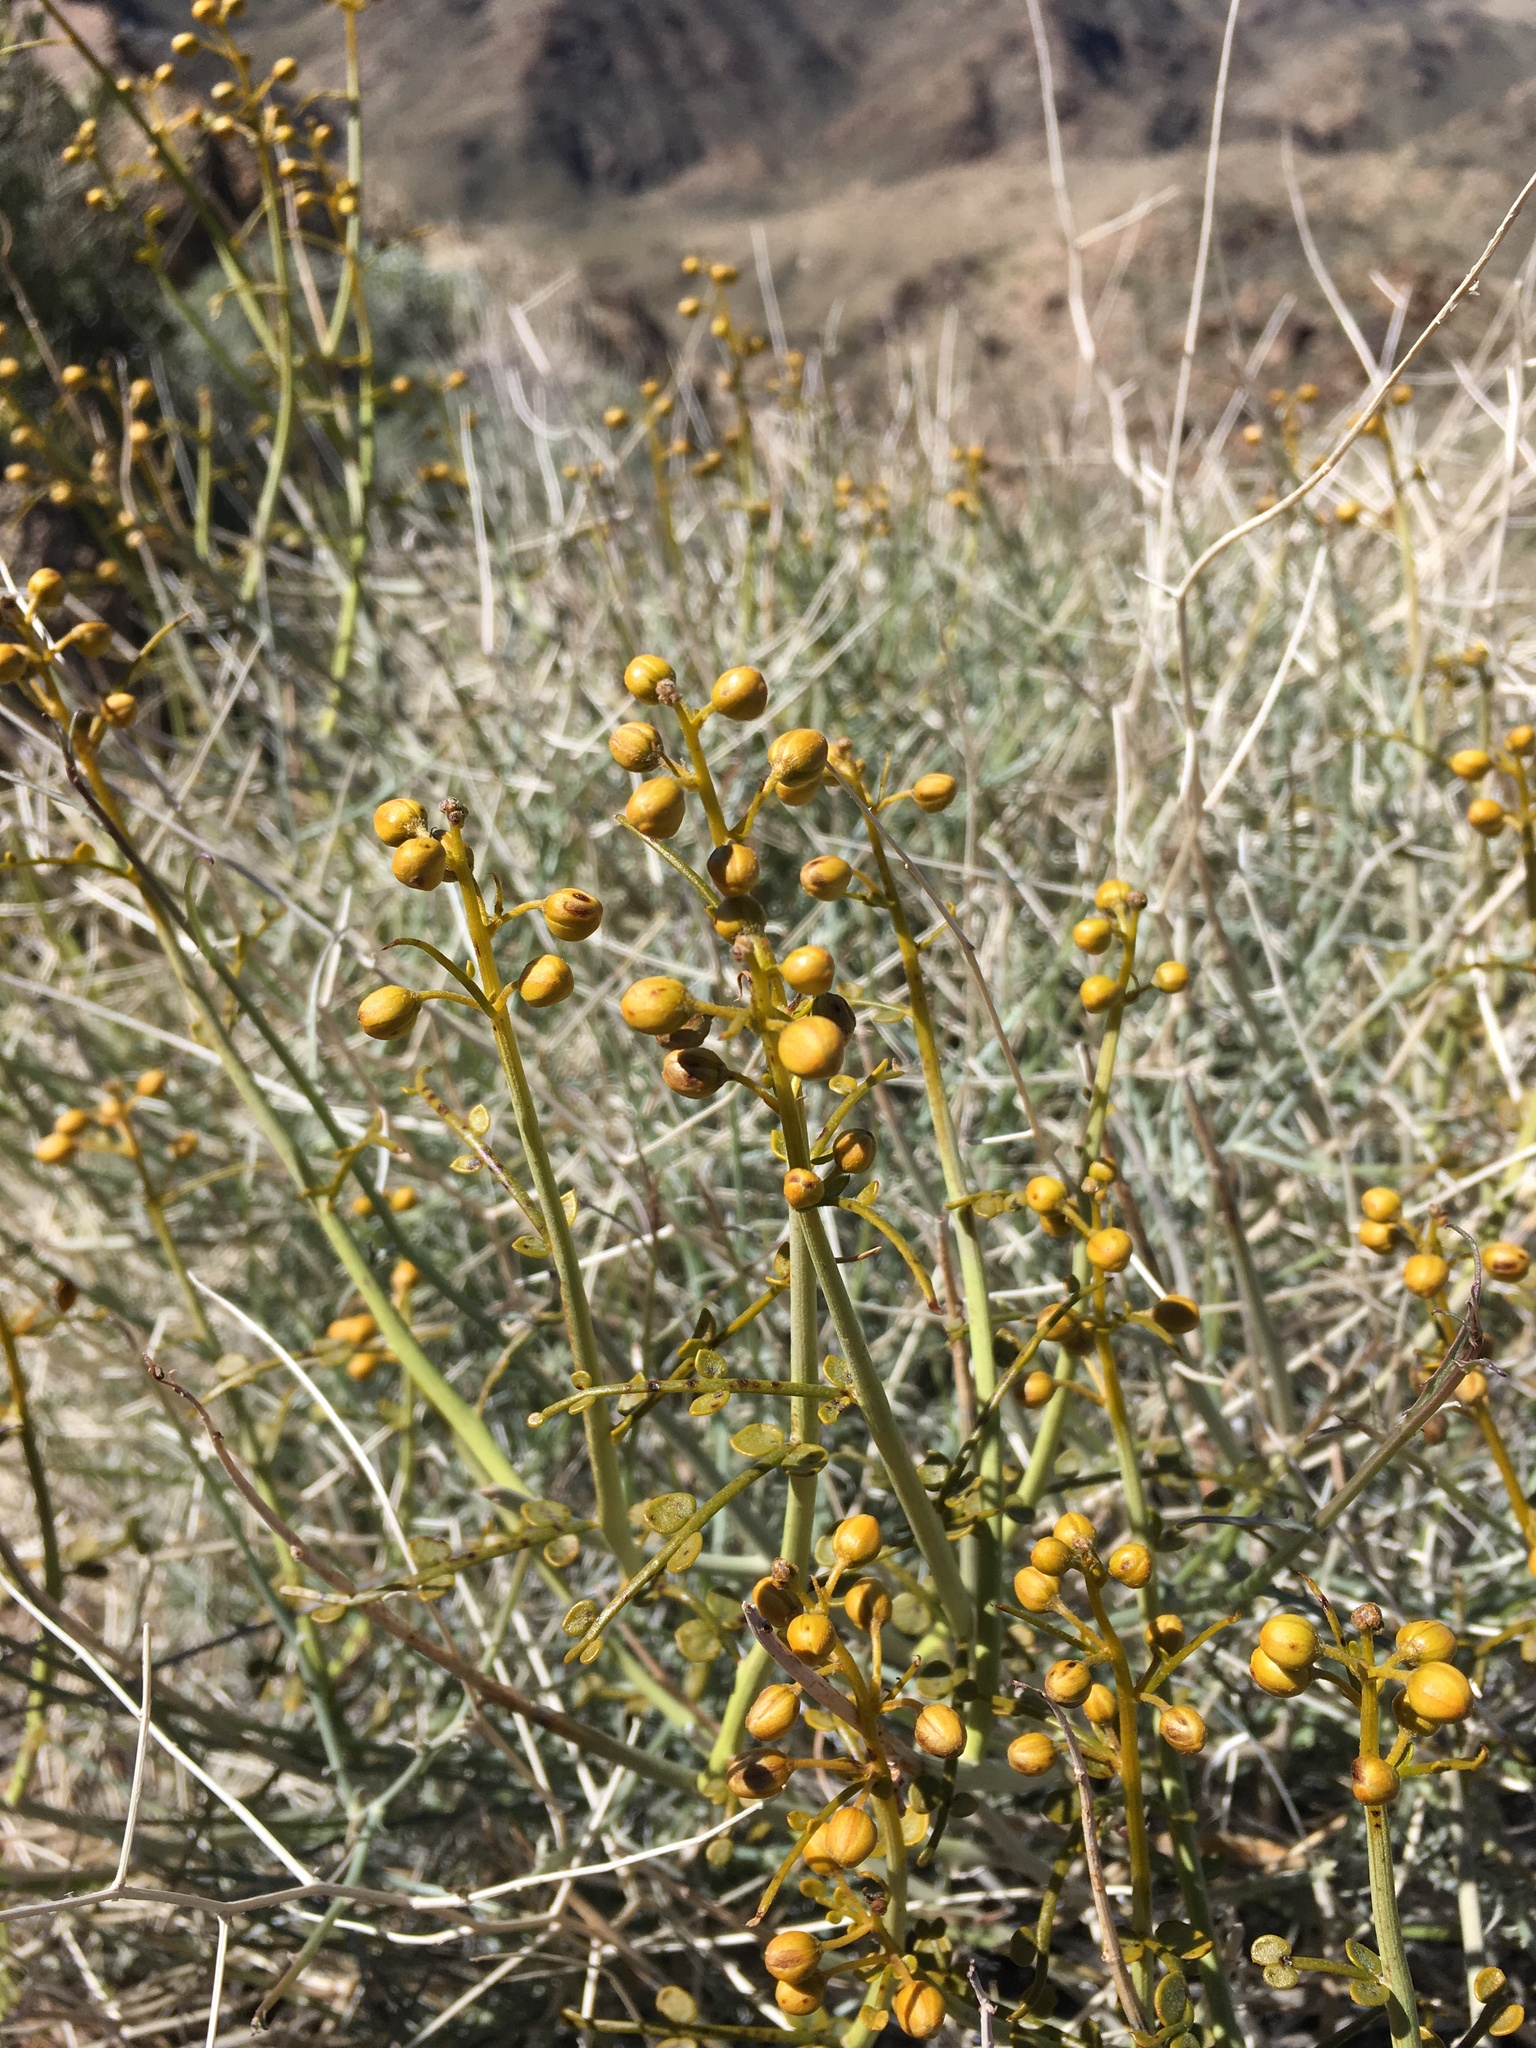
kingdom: Plantae
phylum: Tracheophyta
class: Magnoliopsida
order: Fabales
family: Fabaceae
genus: Senna
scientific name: Senna armata
